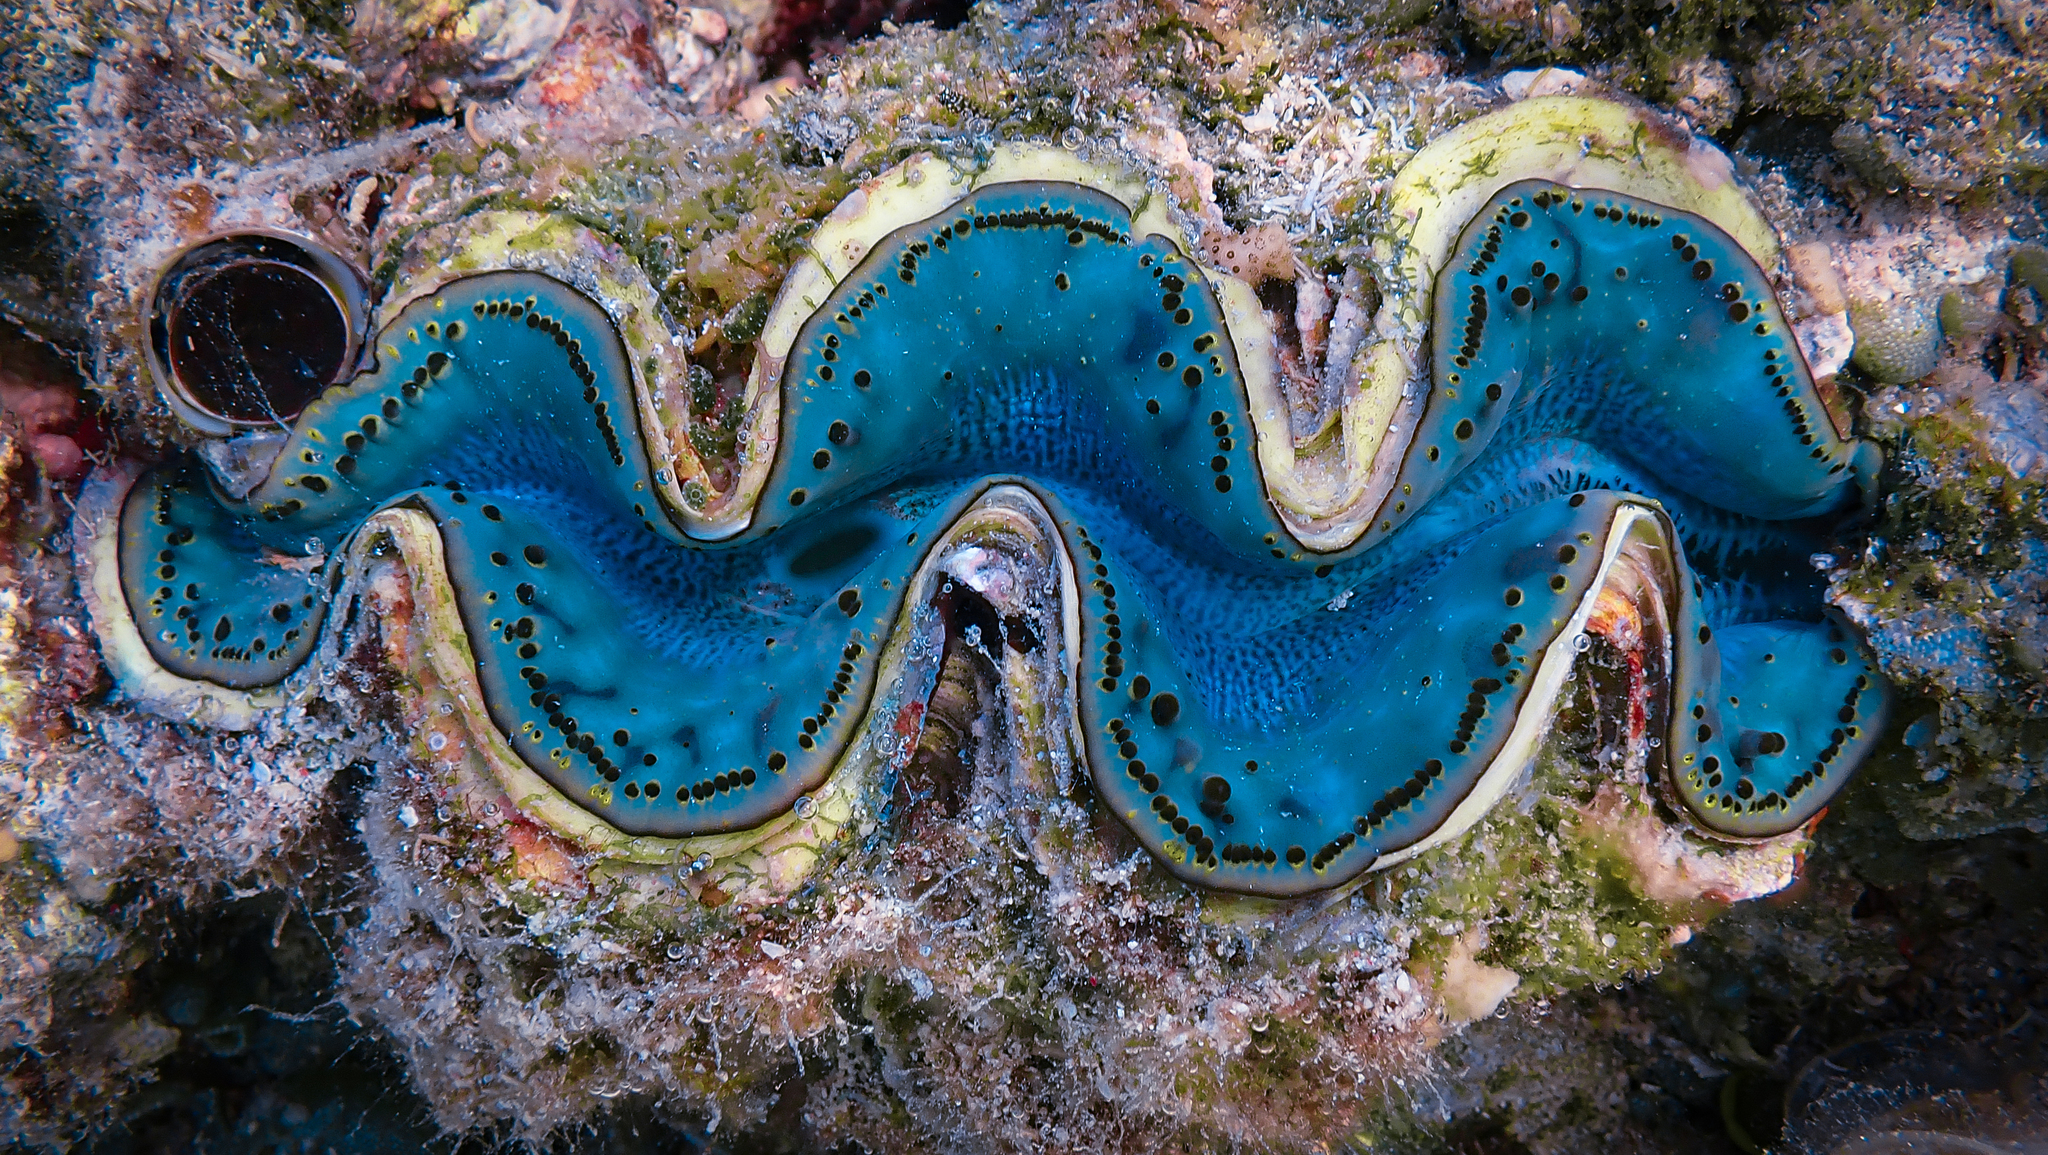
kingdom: Animalia
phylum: Mollusca
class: Bivalvia
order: Cardiida
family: Cardiidae
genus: Tridacna
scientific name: Tridacna maxima
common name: Small giant clam
